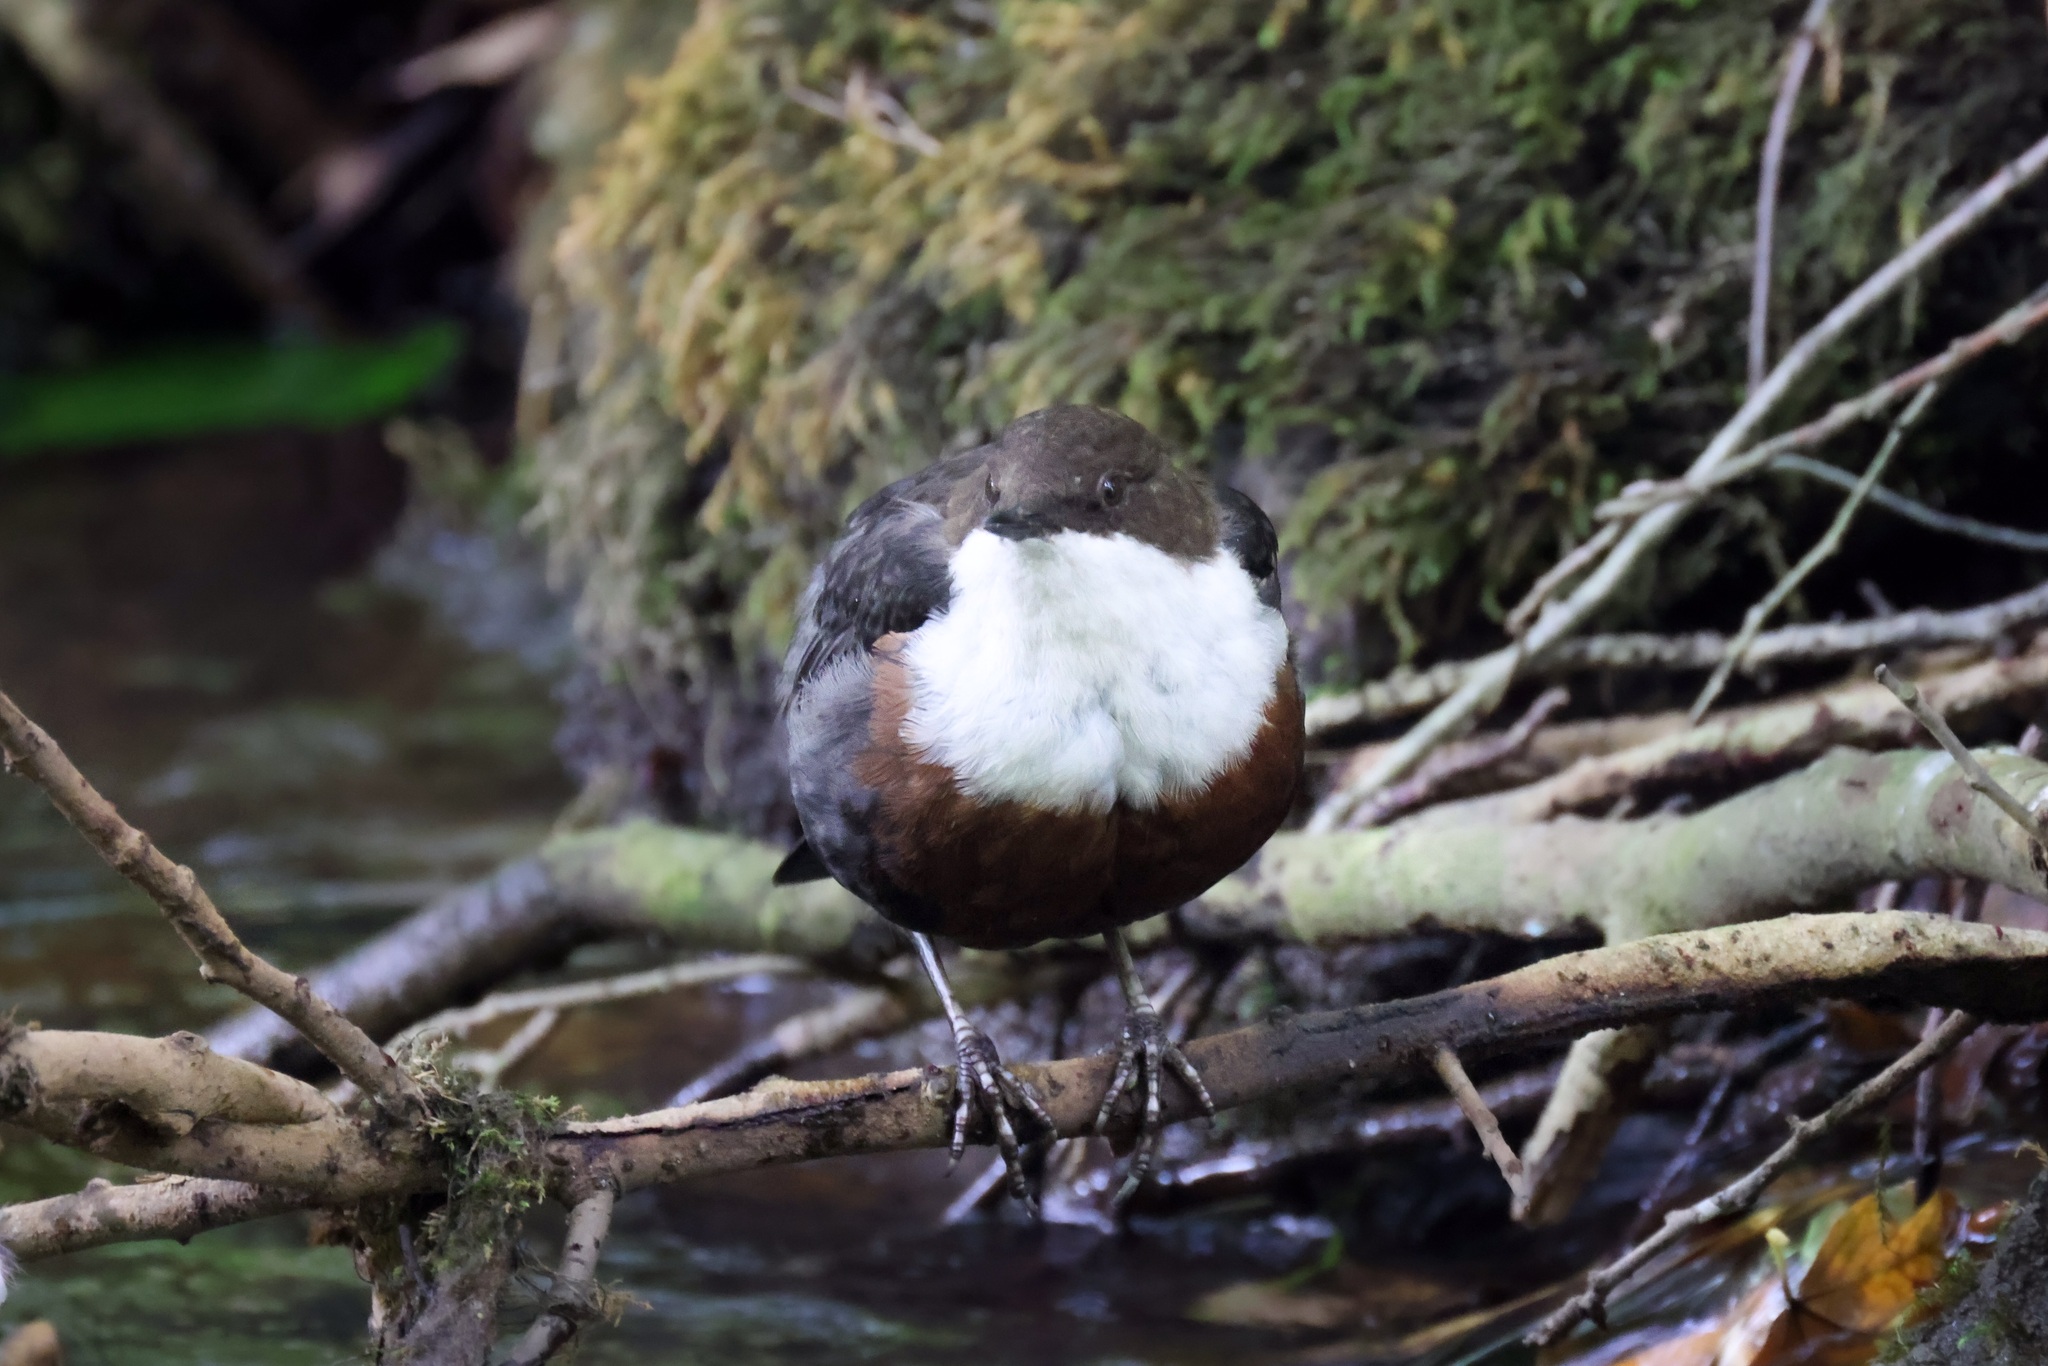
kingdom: Animalia
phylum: Chordata
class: Aves
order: Passeriformes
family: Cinclidae
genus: Cinclus
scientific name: Cinclus cinclus
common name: White-throated dipper
